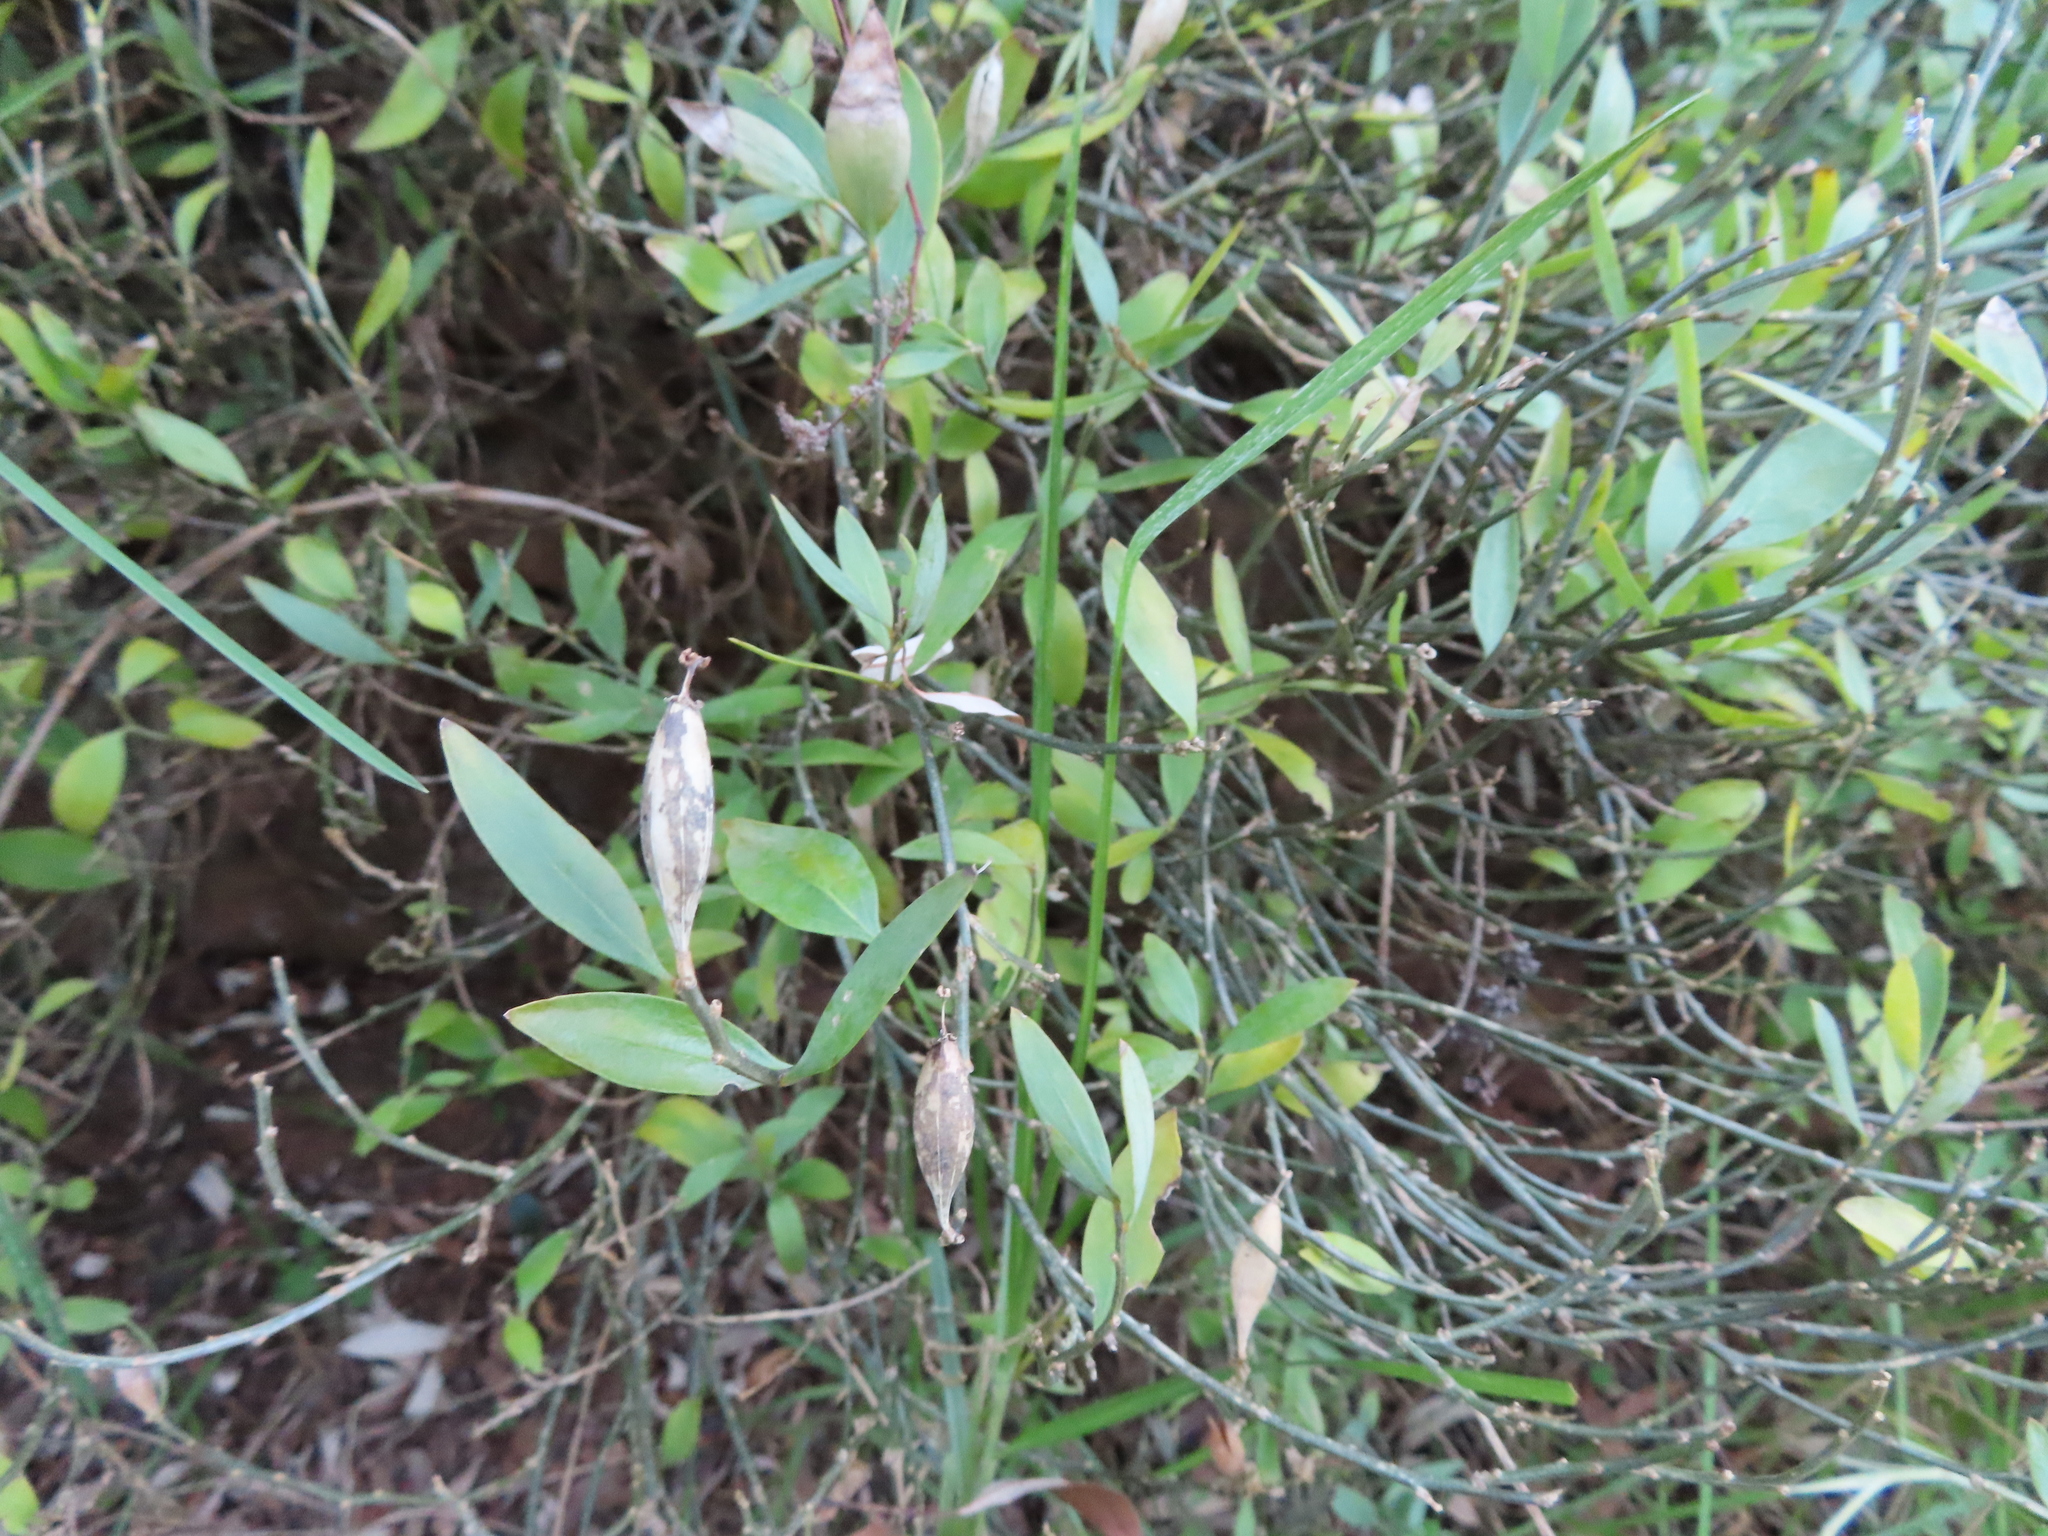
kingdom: Plantae
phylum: Tracheophyta
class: Magnoliopsida
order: Solanales
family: Montiniaceae
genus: Montinia
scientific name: Montinia caryophyllacea
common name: Wild clove-bush
